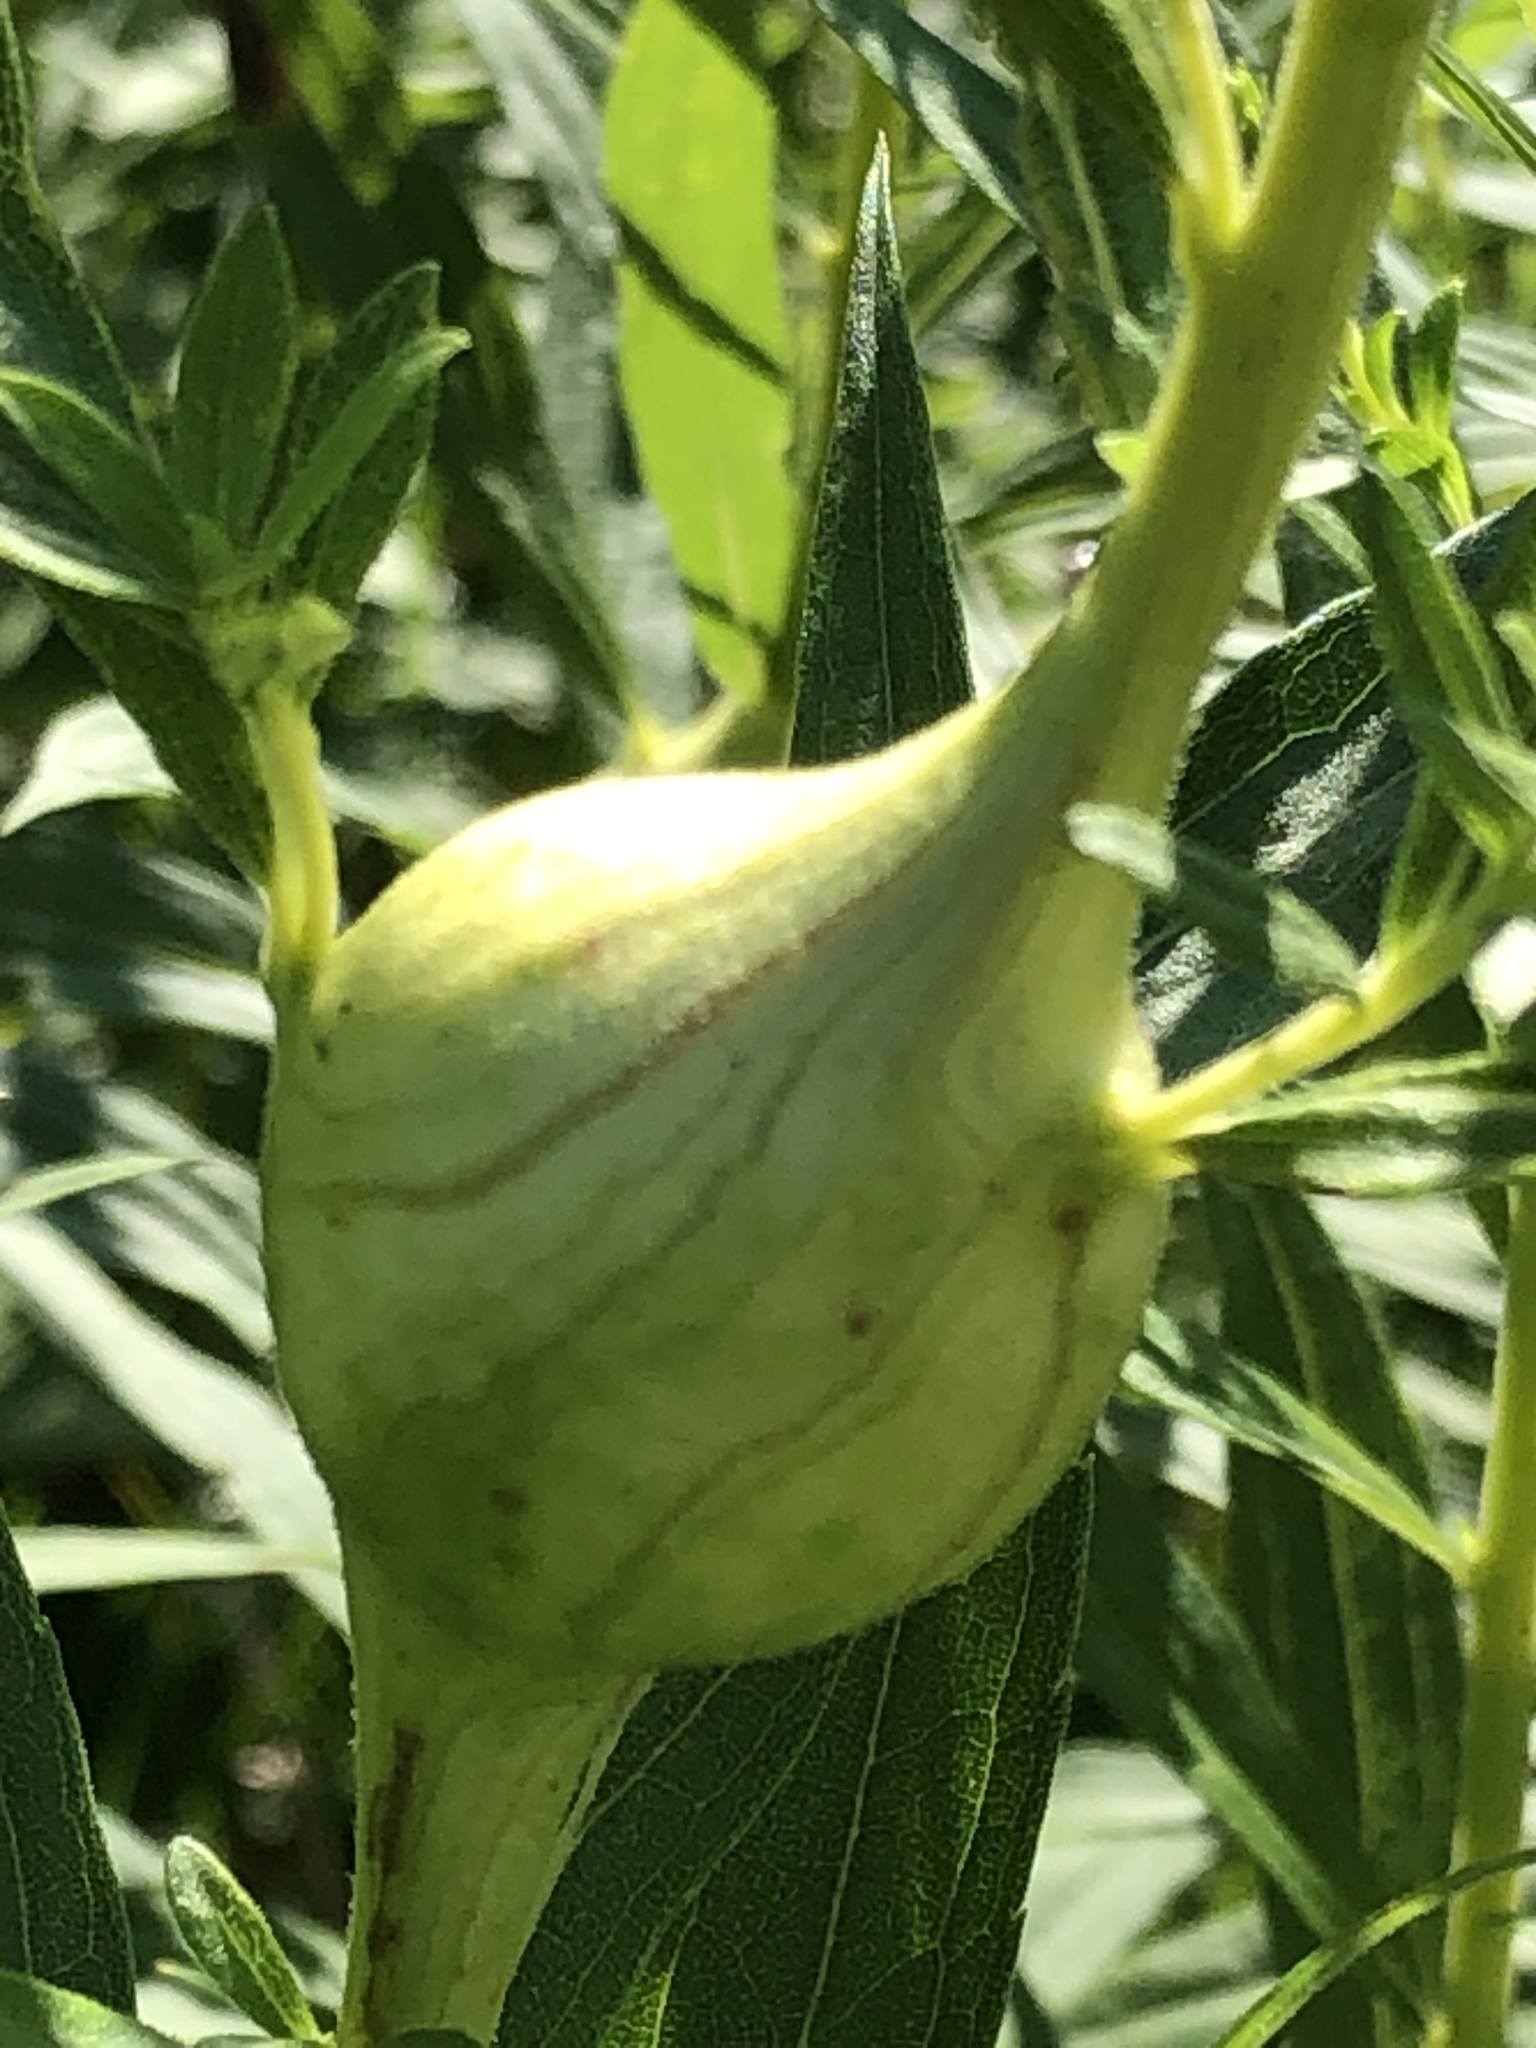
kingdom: Animalia
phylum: Arthropoda
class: Insecta
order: Diptera
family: Tephritidae
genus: Eurosta
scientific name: Eurosta solidaginis
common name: Goldenrod gall fly
